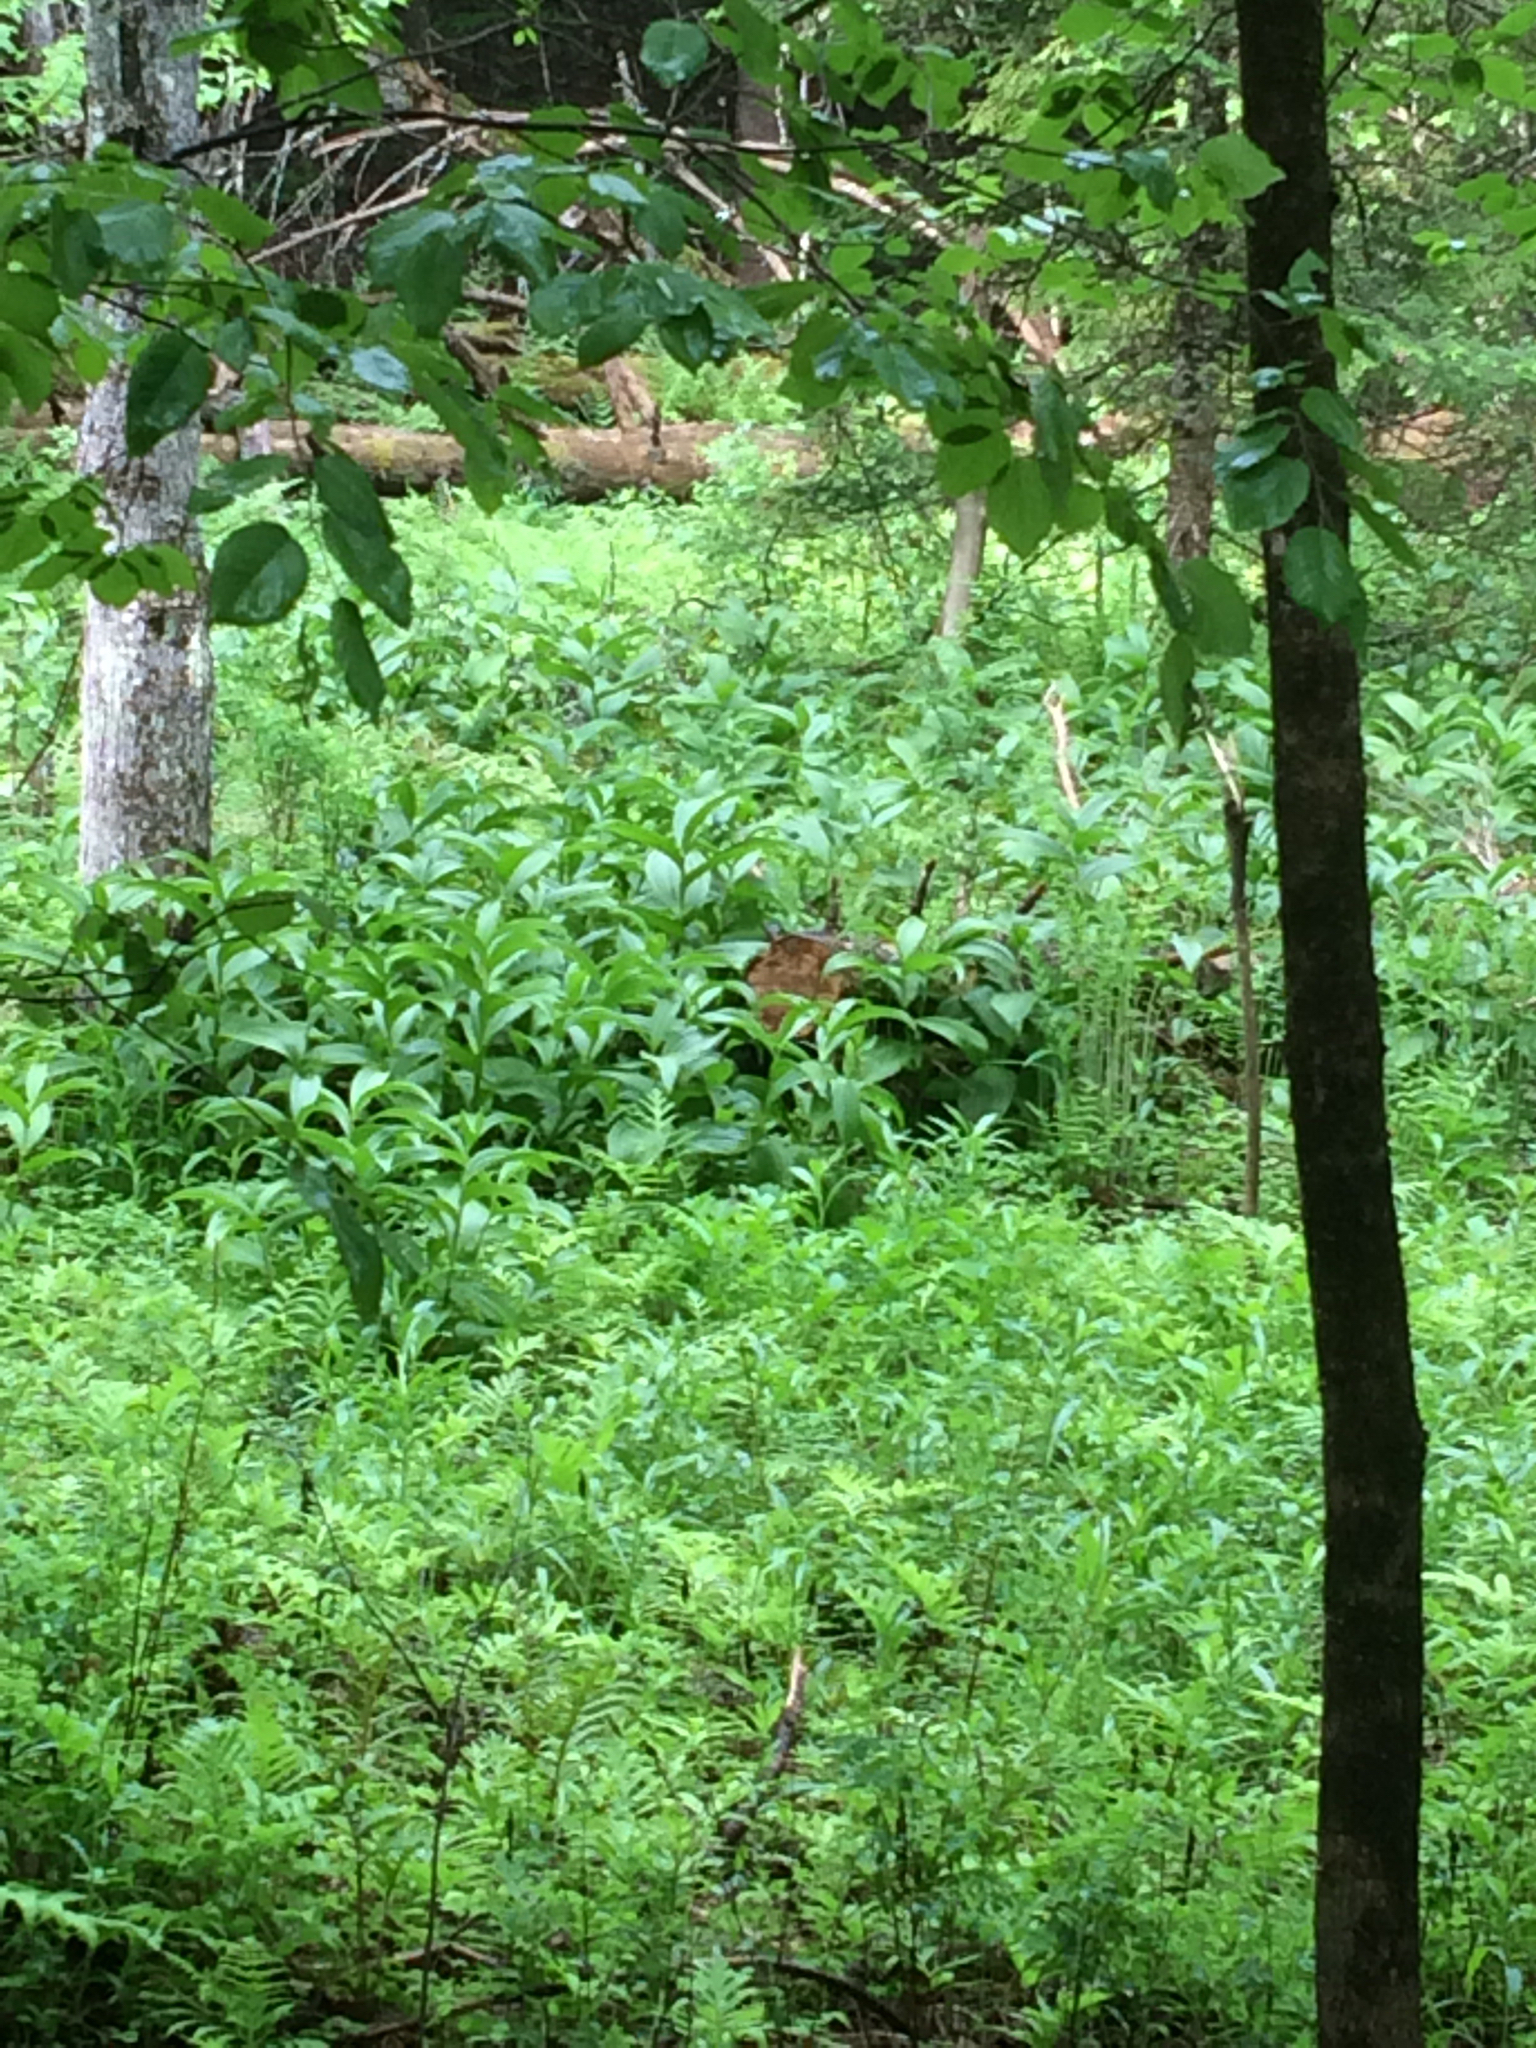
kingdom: Plantae
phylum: Tracheophyta
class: Liliopsida
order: Liliales
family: Melanthiaceae
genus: Veratrum
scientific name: Veratrum viride
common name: American false hellebore
